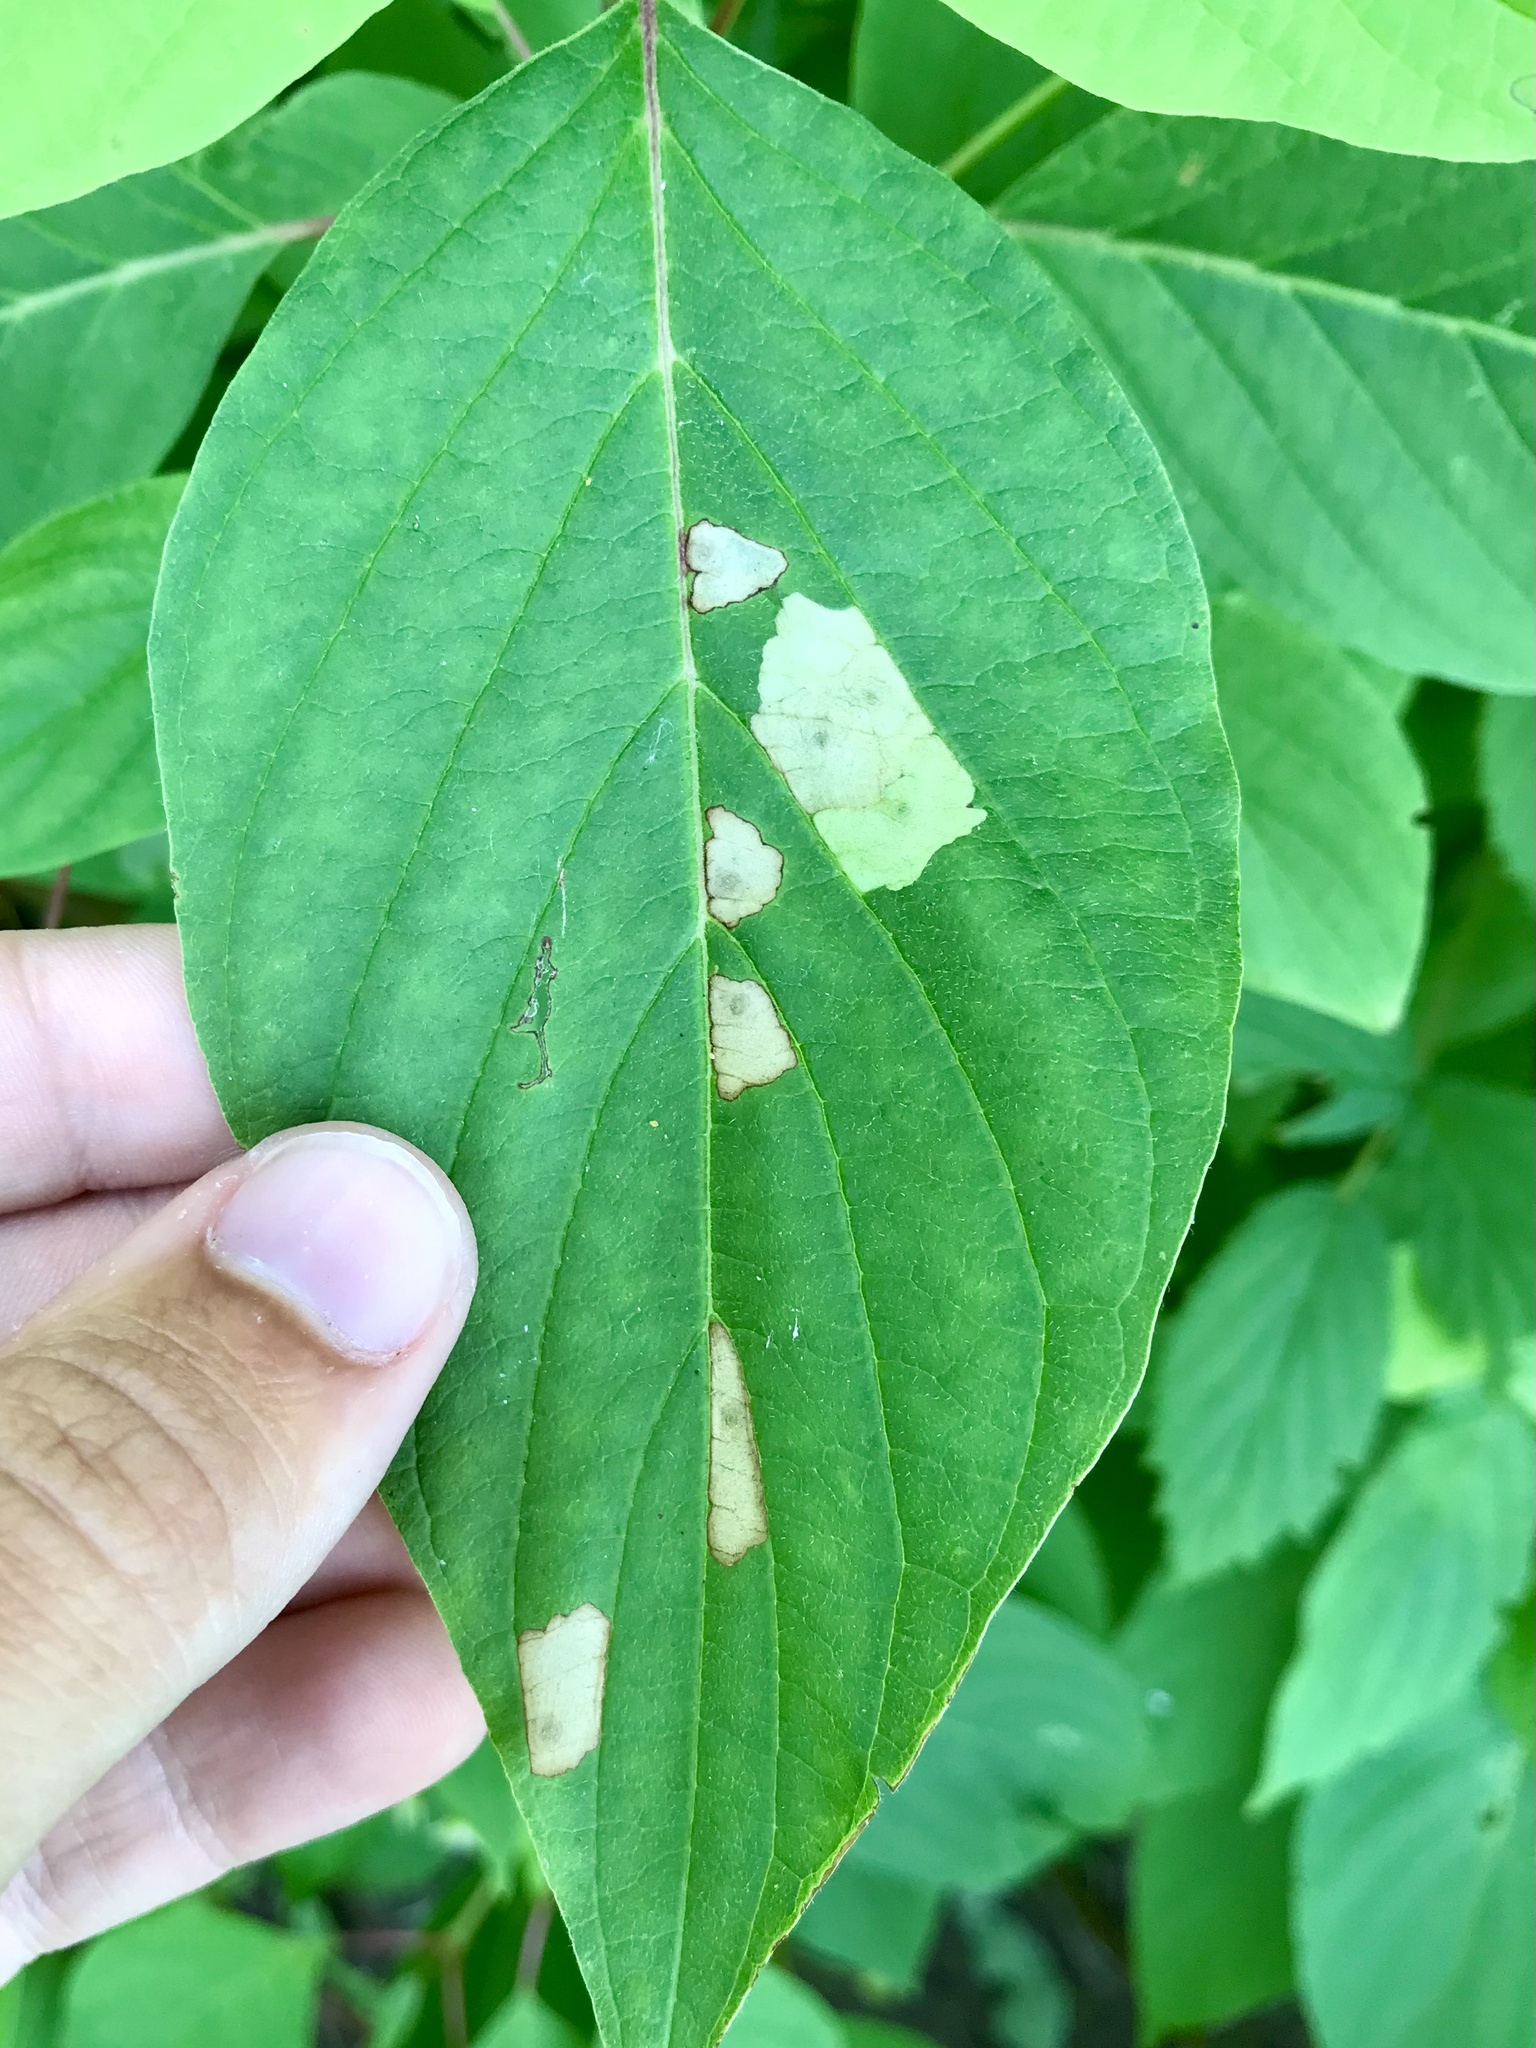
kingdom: Animalia
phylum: Arthropoda
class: Insecta
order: Lepidoptera
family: Coleophoridae
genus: Coleophora
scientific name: Coleophora cornella
